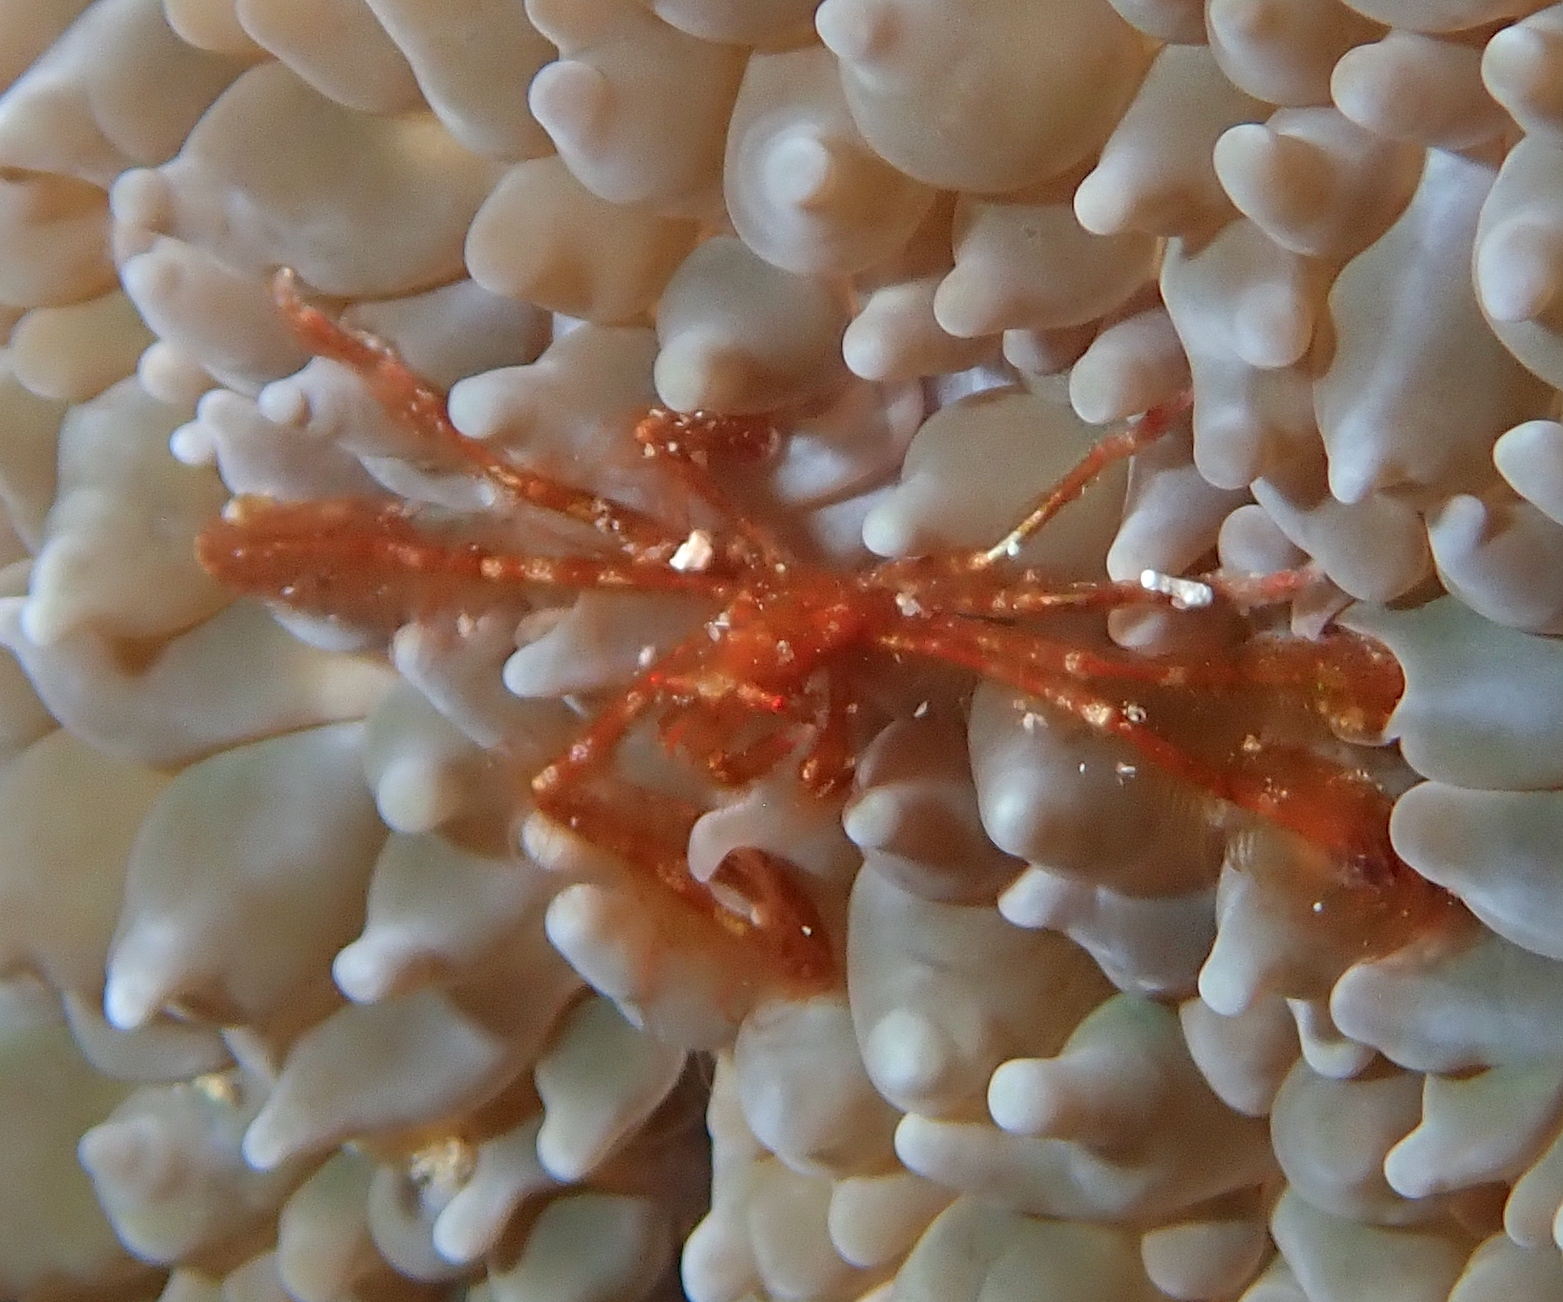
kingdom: Animalia
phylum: Arthropoda
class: Malacostraca
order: Decapoda
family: Inachidae
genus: Achaeus
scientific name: Achaeus japonicus
